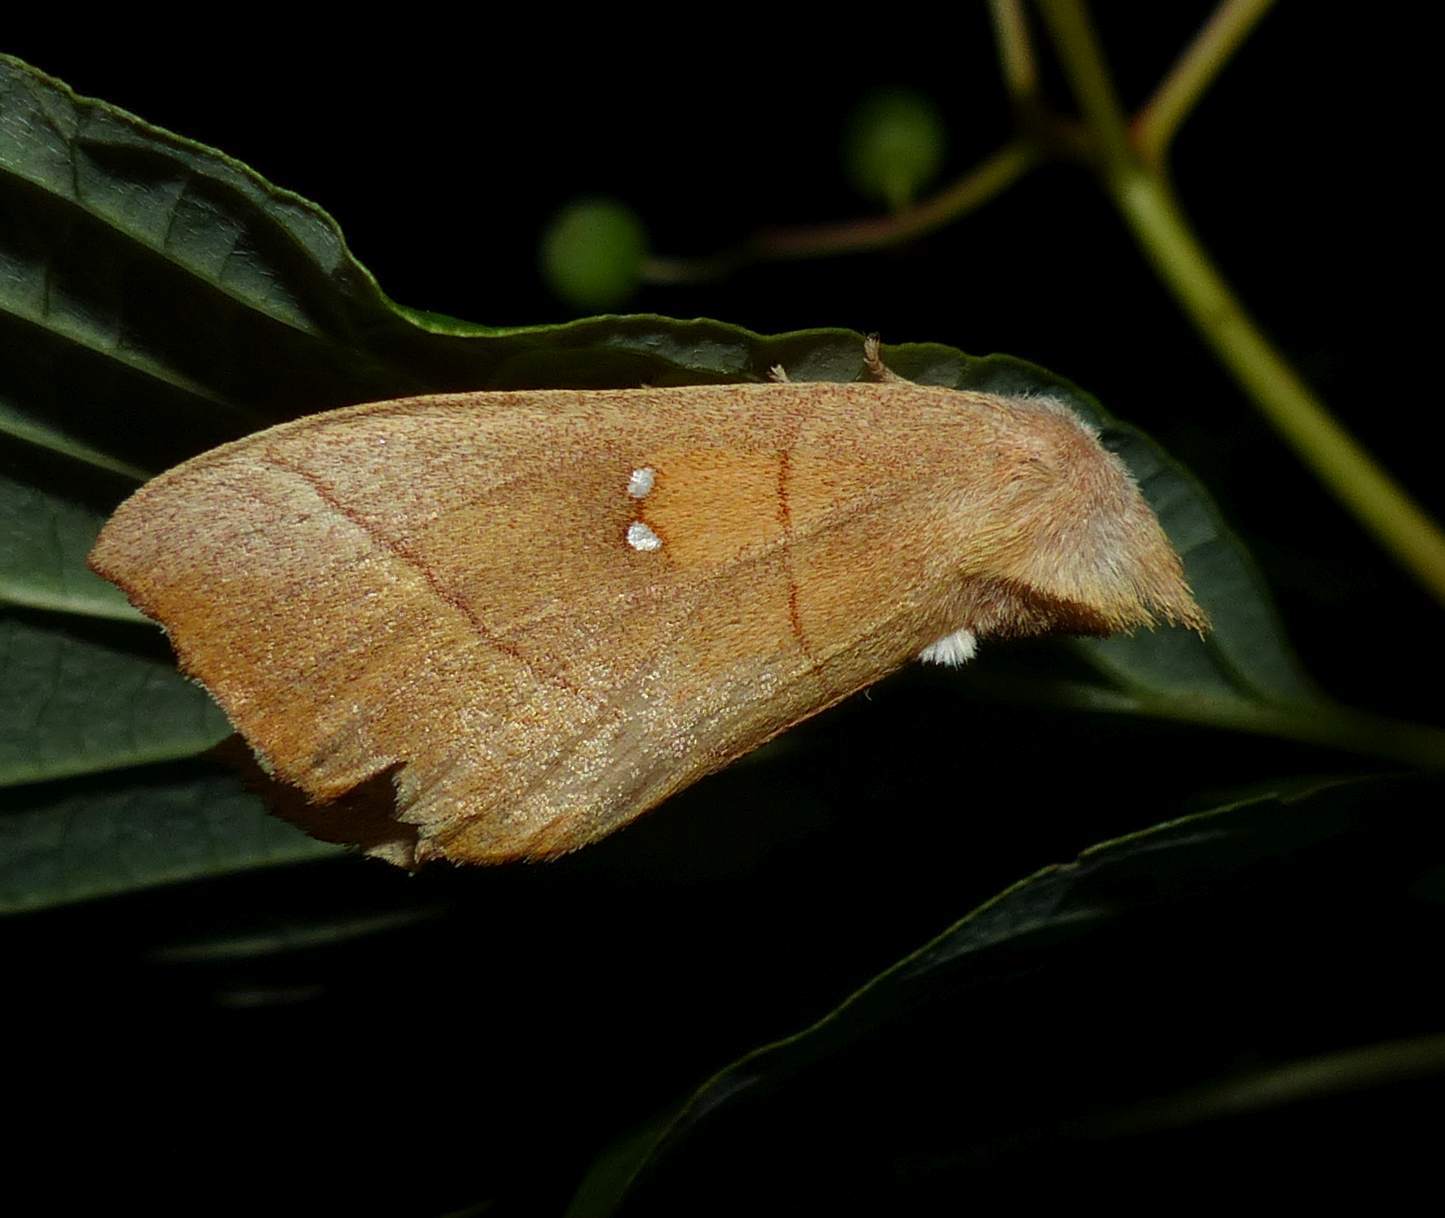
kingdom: Animalia
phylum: Arthropoda
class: Insecta
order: Lepidoptera
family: Notodontidae
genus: Nadata
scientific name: Nadata gibbosa
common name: White-dotted prominent
